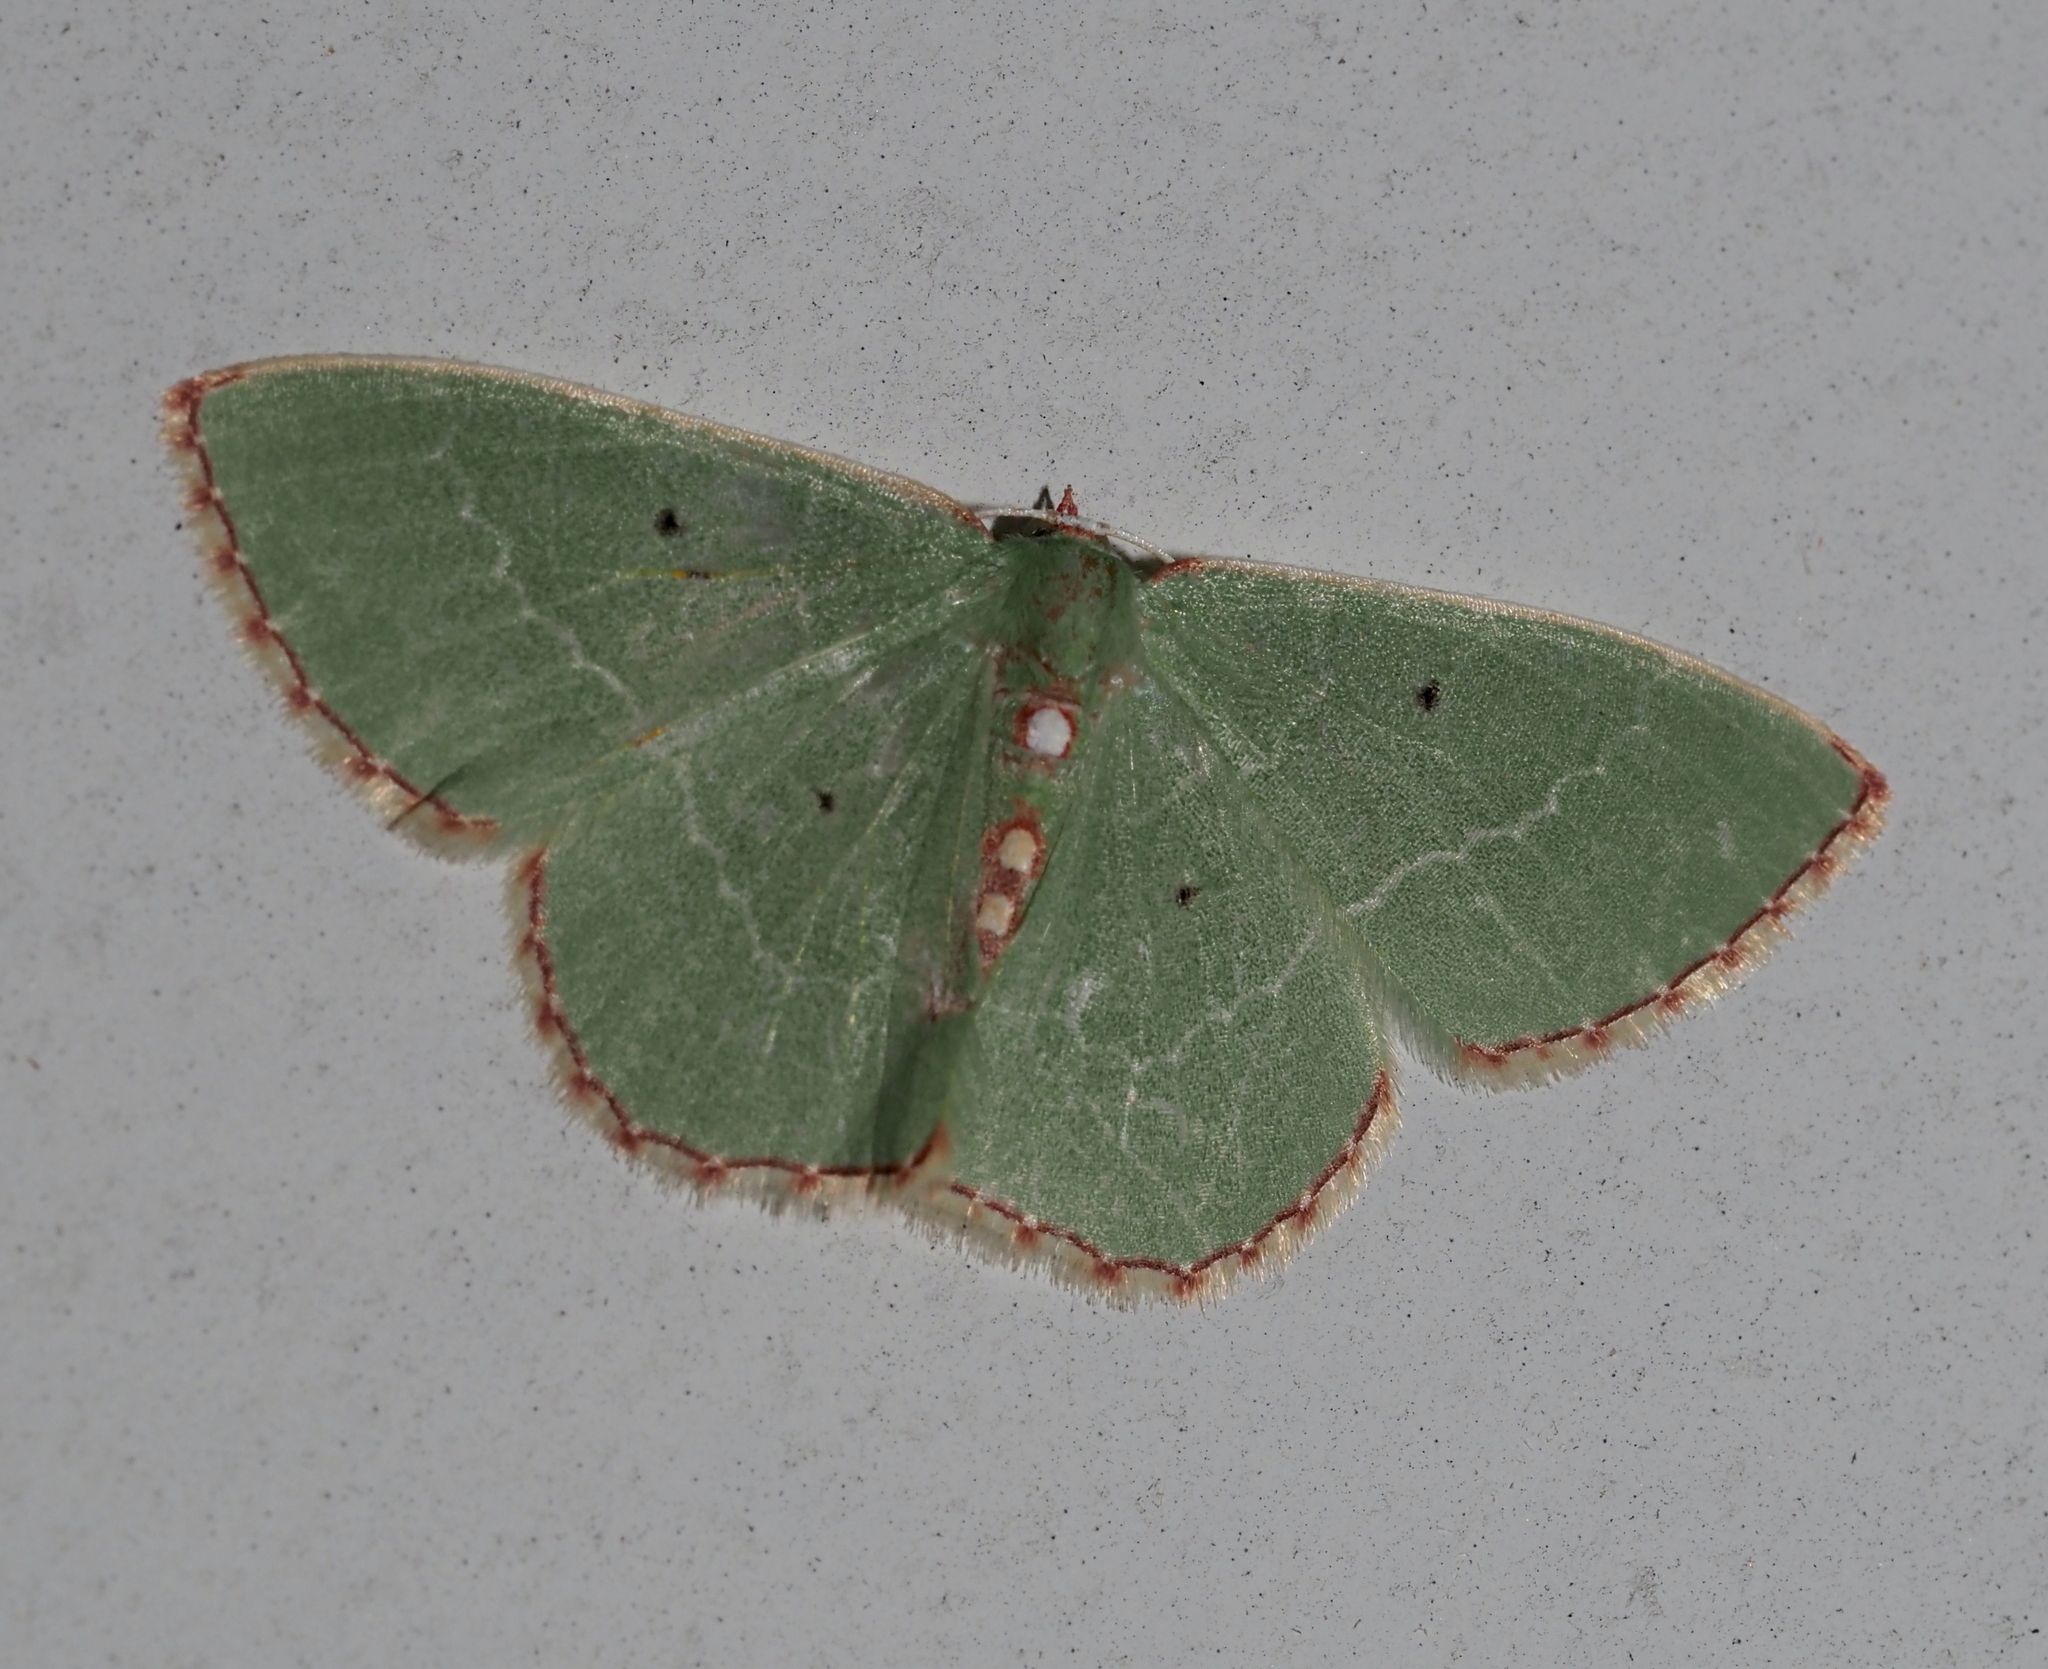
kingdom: Animalia
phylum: Arthropoda
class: Insecta
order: Lepidoptera
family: Geometridae
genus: Nemoria
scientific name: Nemoria lixaria
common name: Red-bordered emerald
